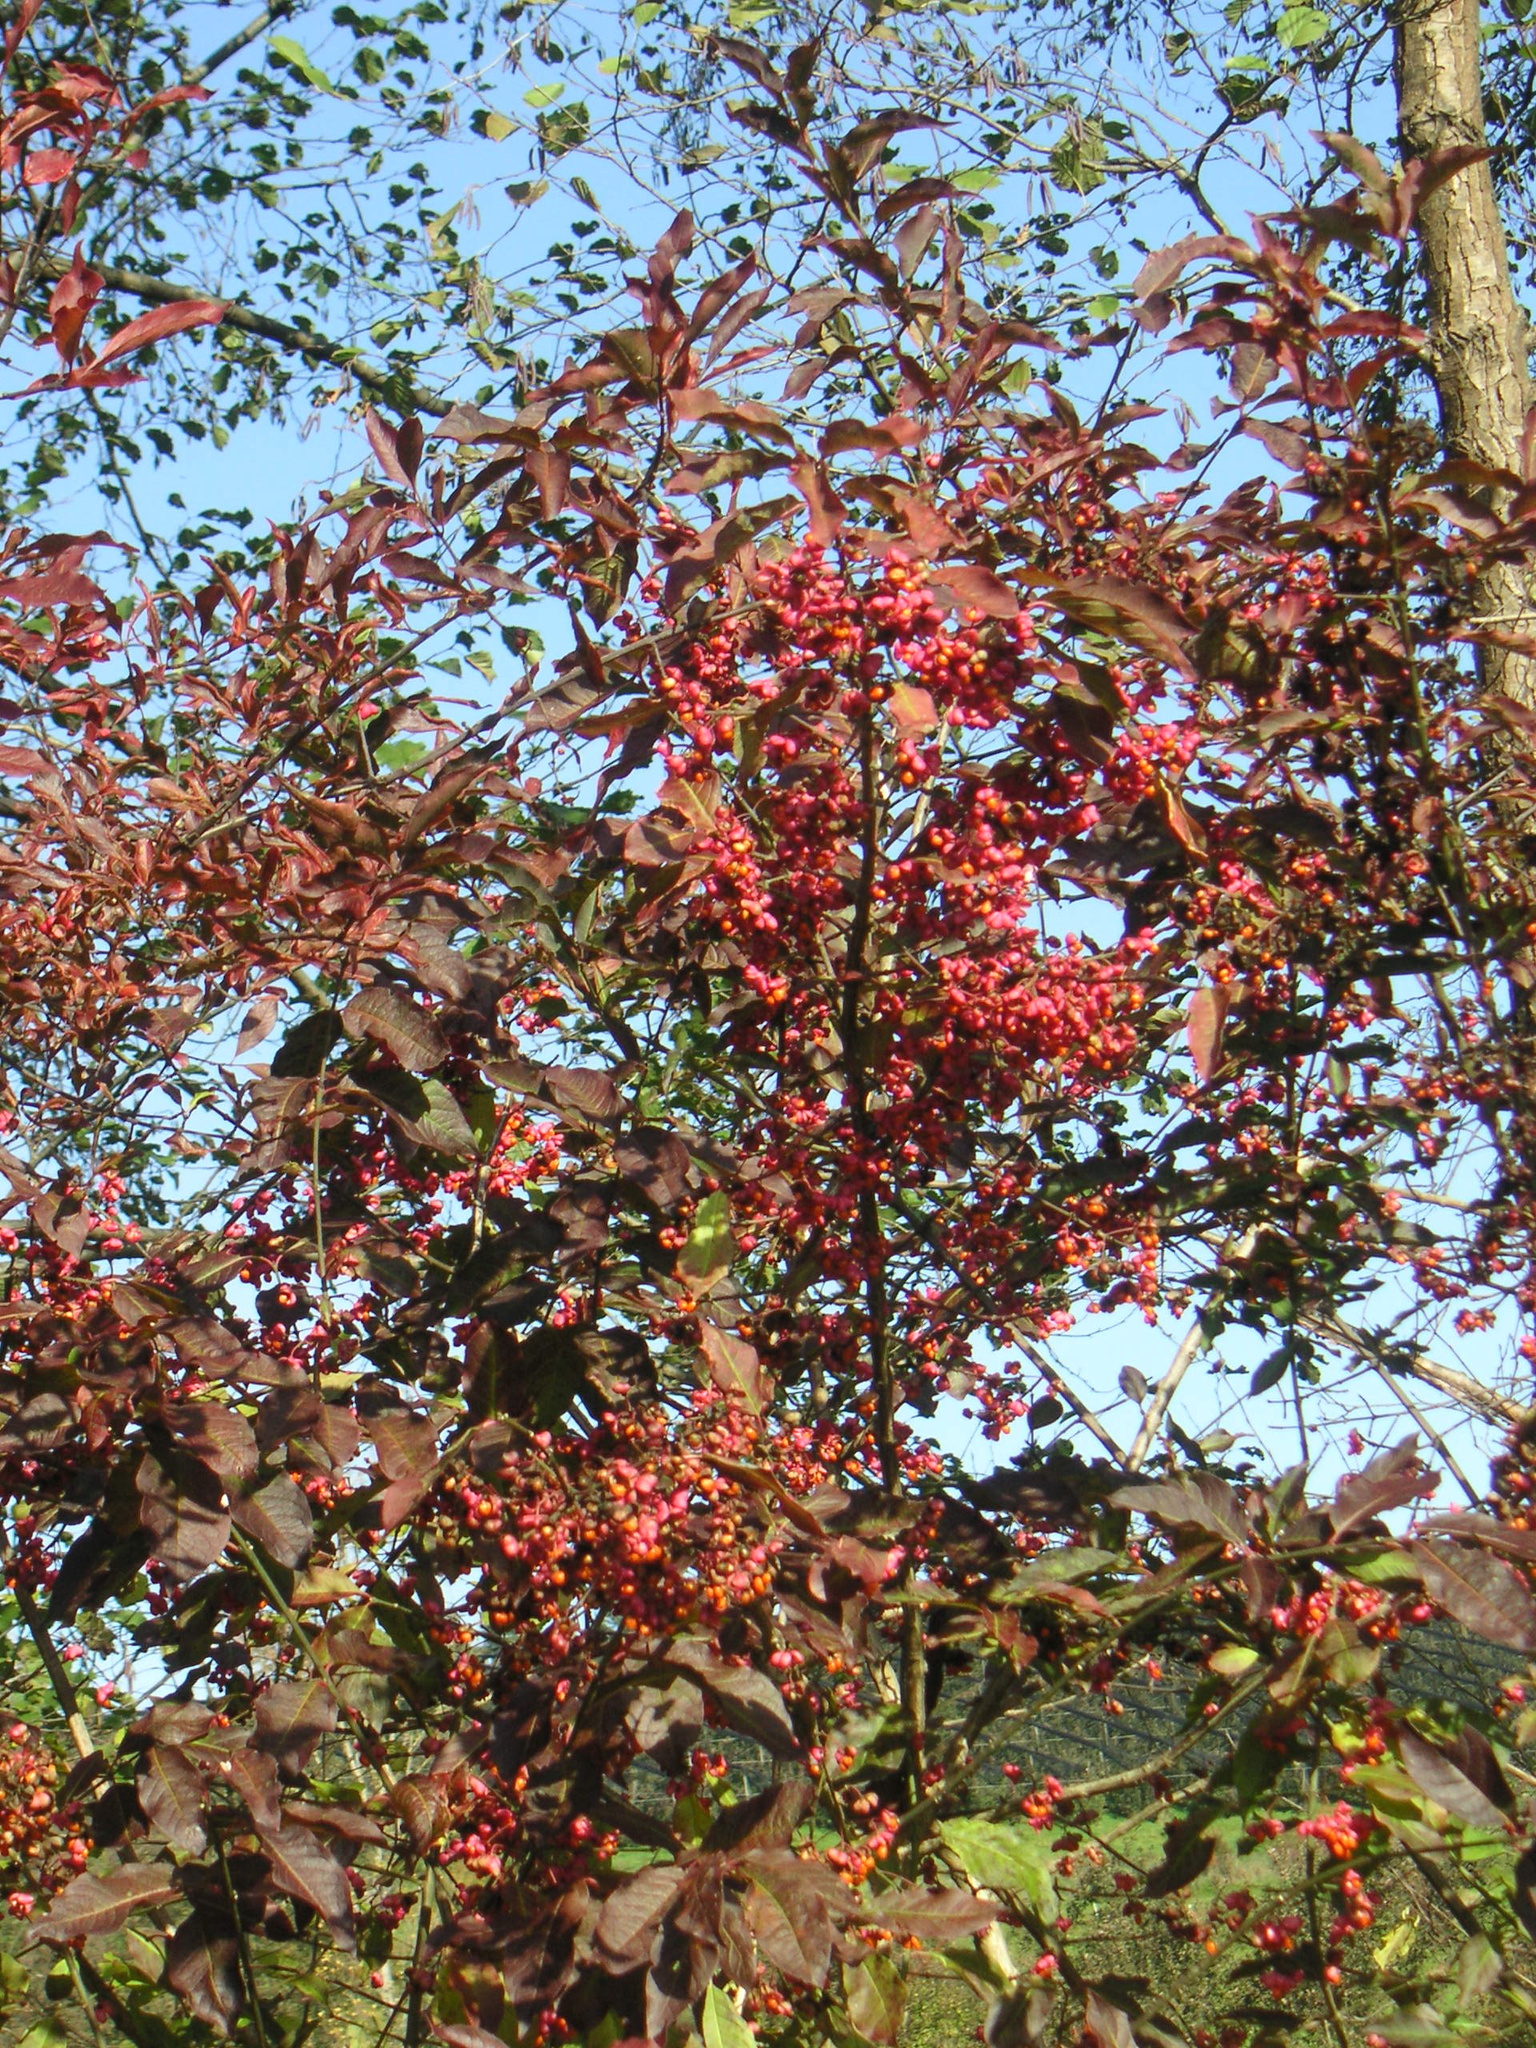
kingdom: Plantae
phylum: Tracheophyta
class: Magnoliopsida
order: Celastrales
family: Celastraceae
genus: Euonymus
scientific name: Euonymus europaeus
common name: Spindle
